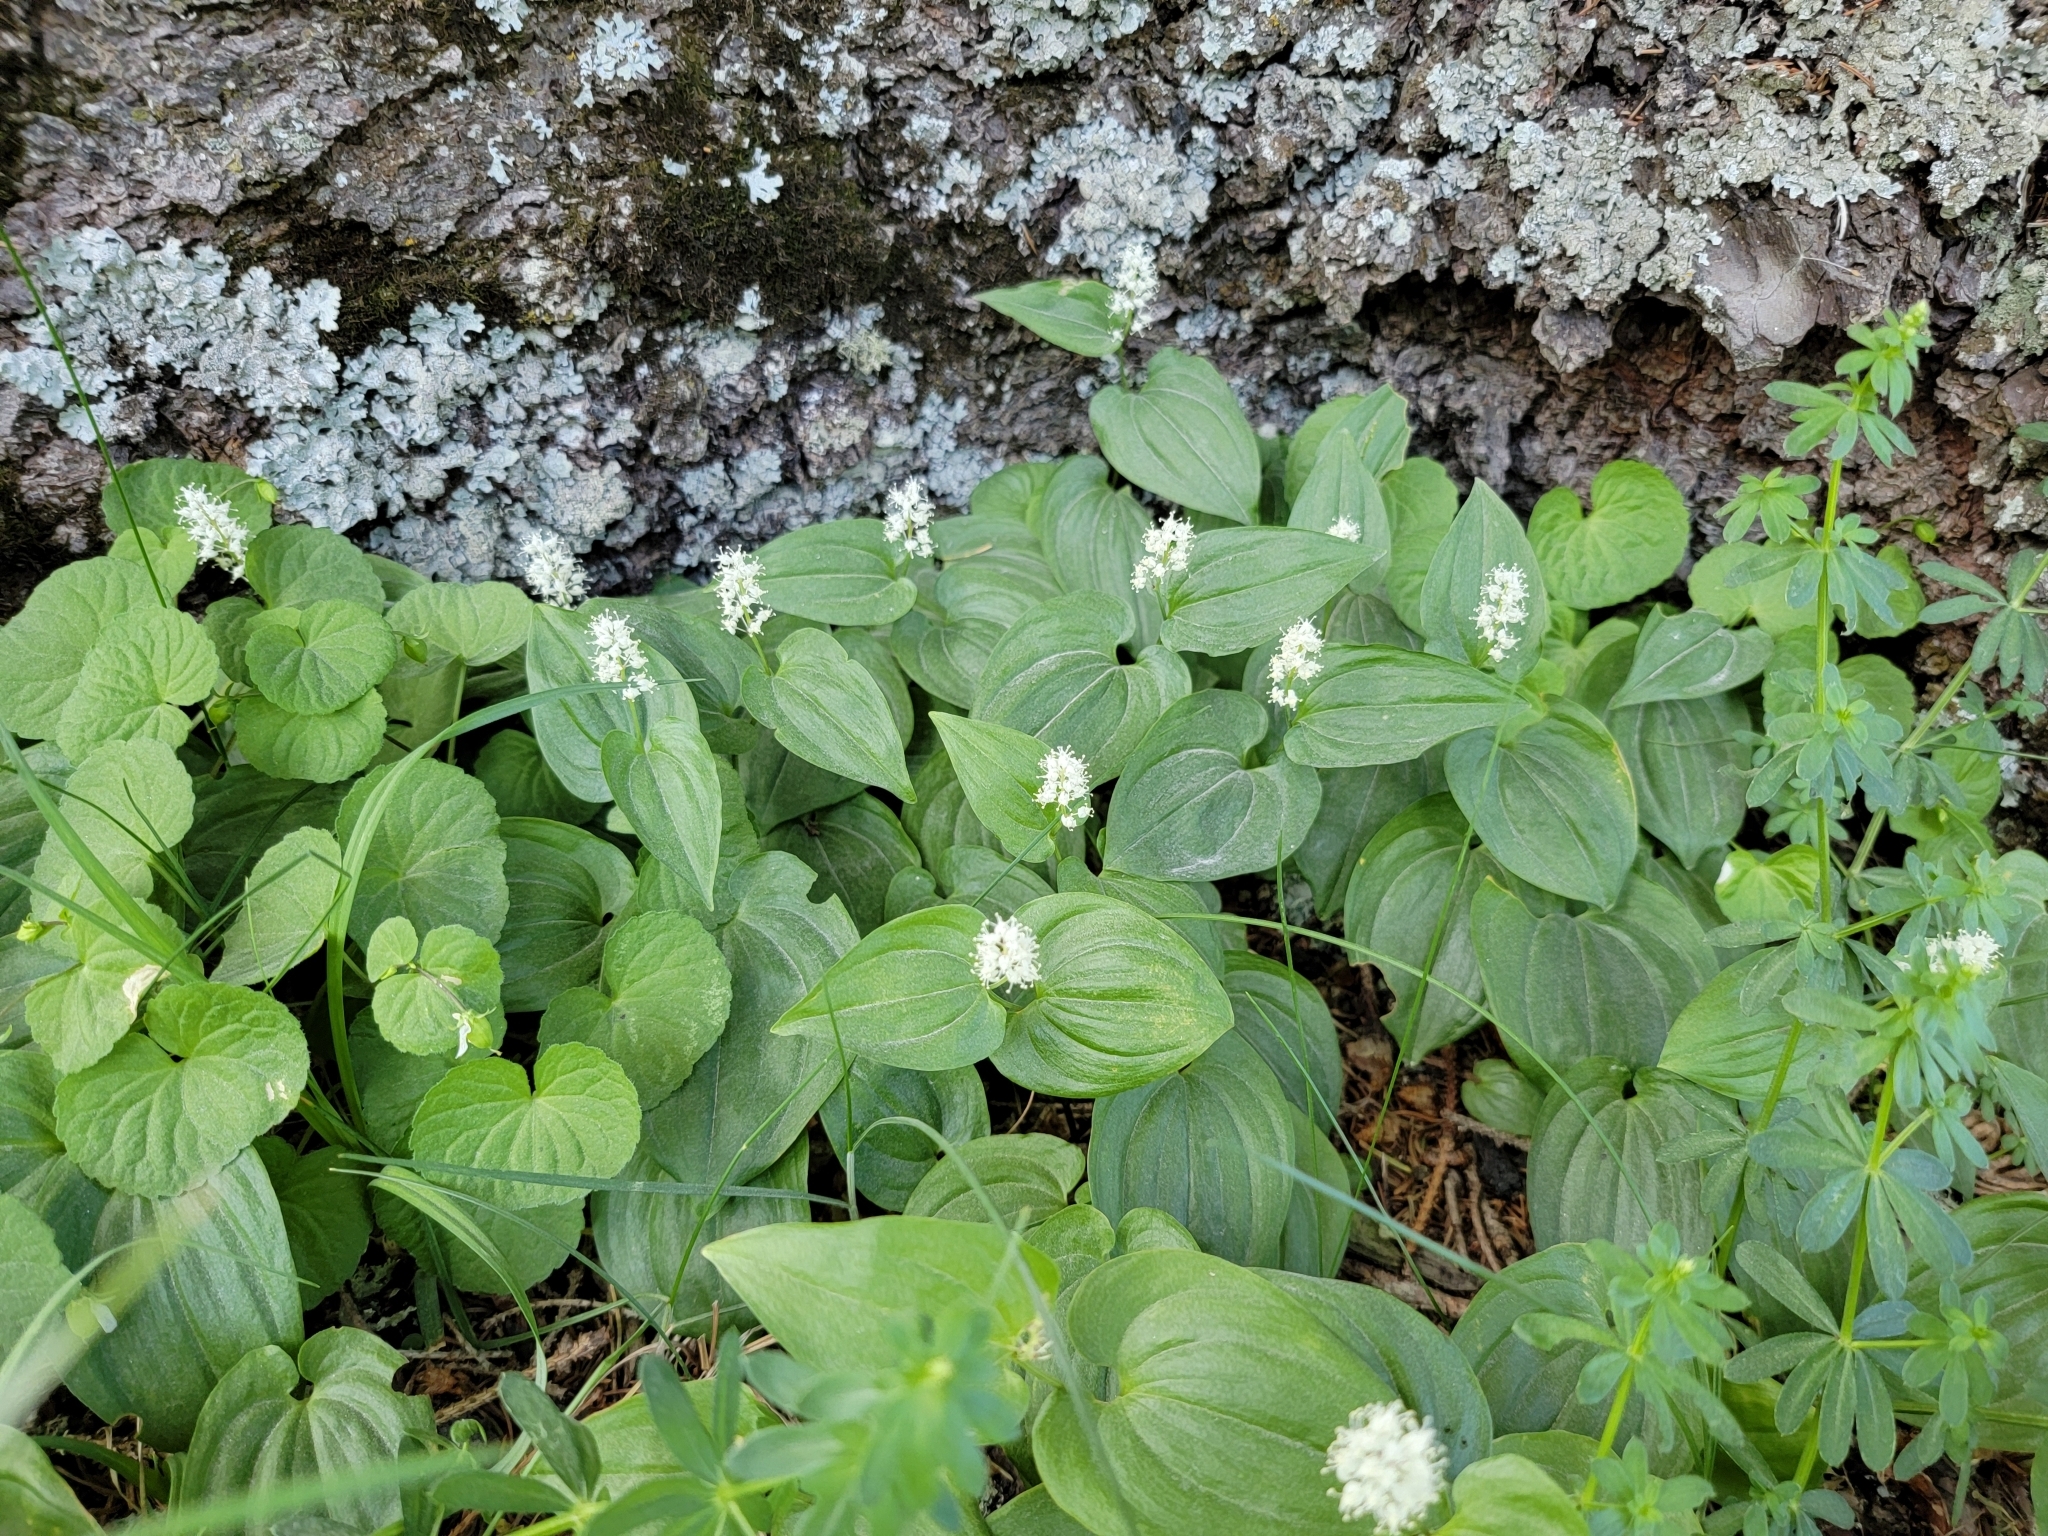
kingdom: Plantae
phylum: Tracheophyta
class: Liliopsida
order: Asparagales
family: Asparagaceae
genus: Maianthemum
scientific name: Maianthemum bifolium
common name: May lily
